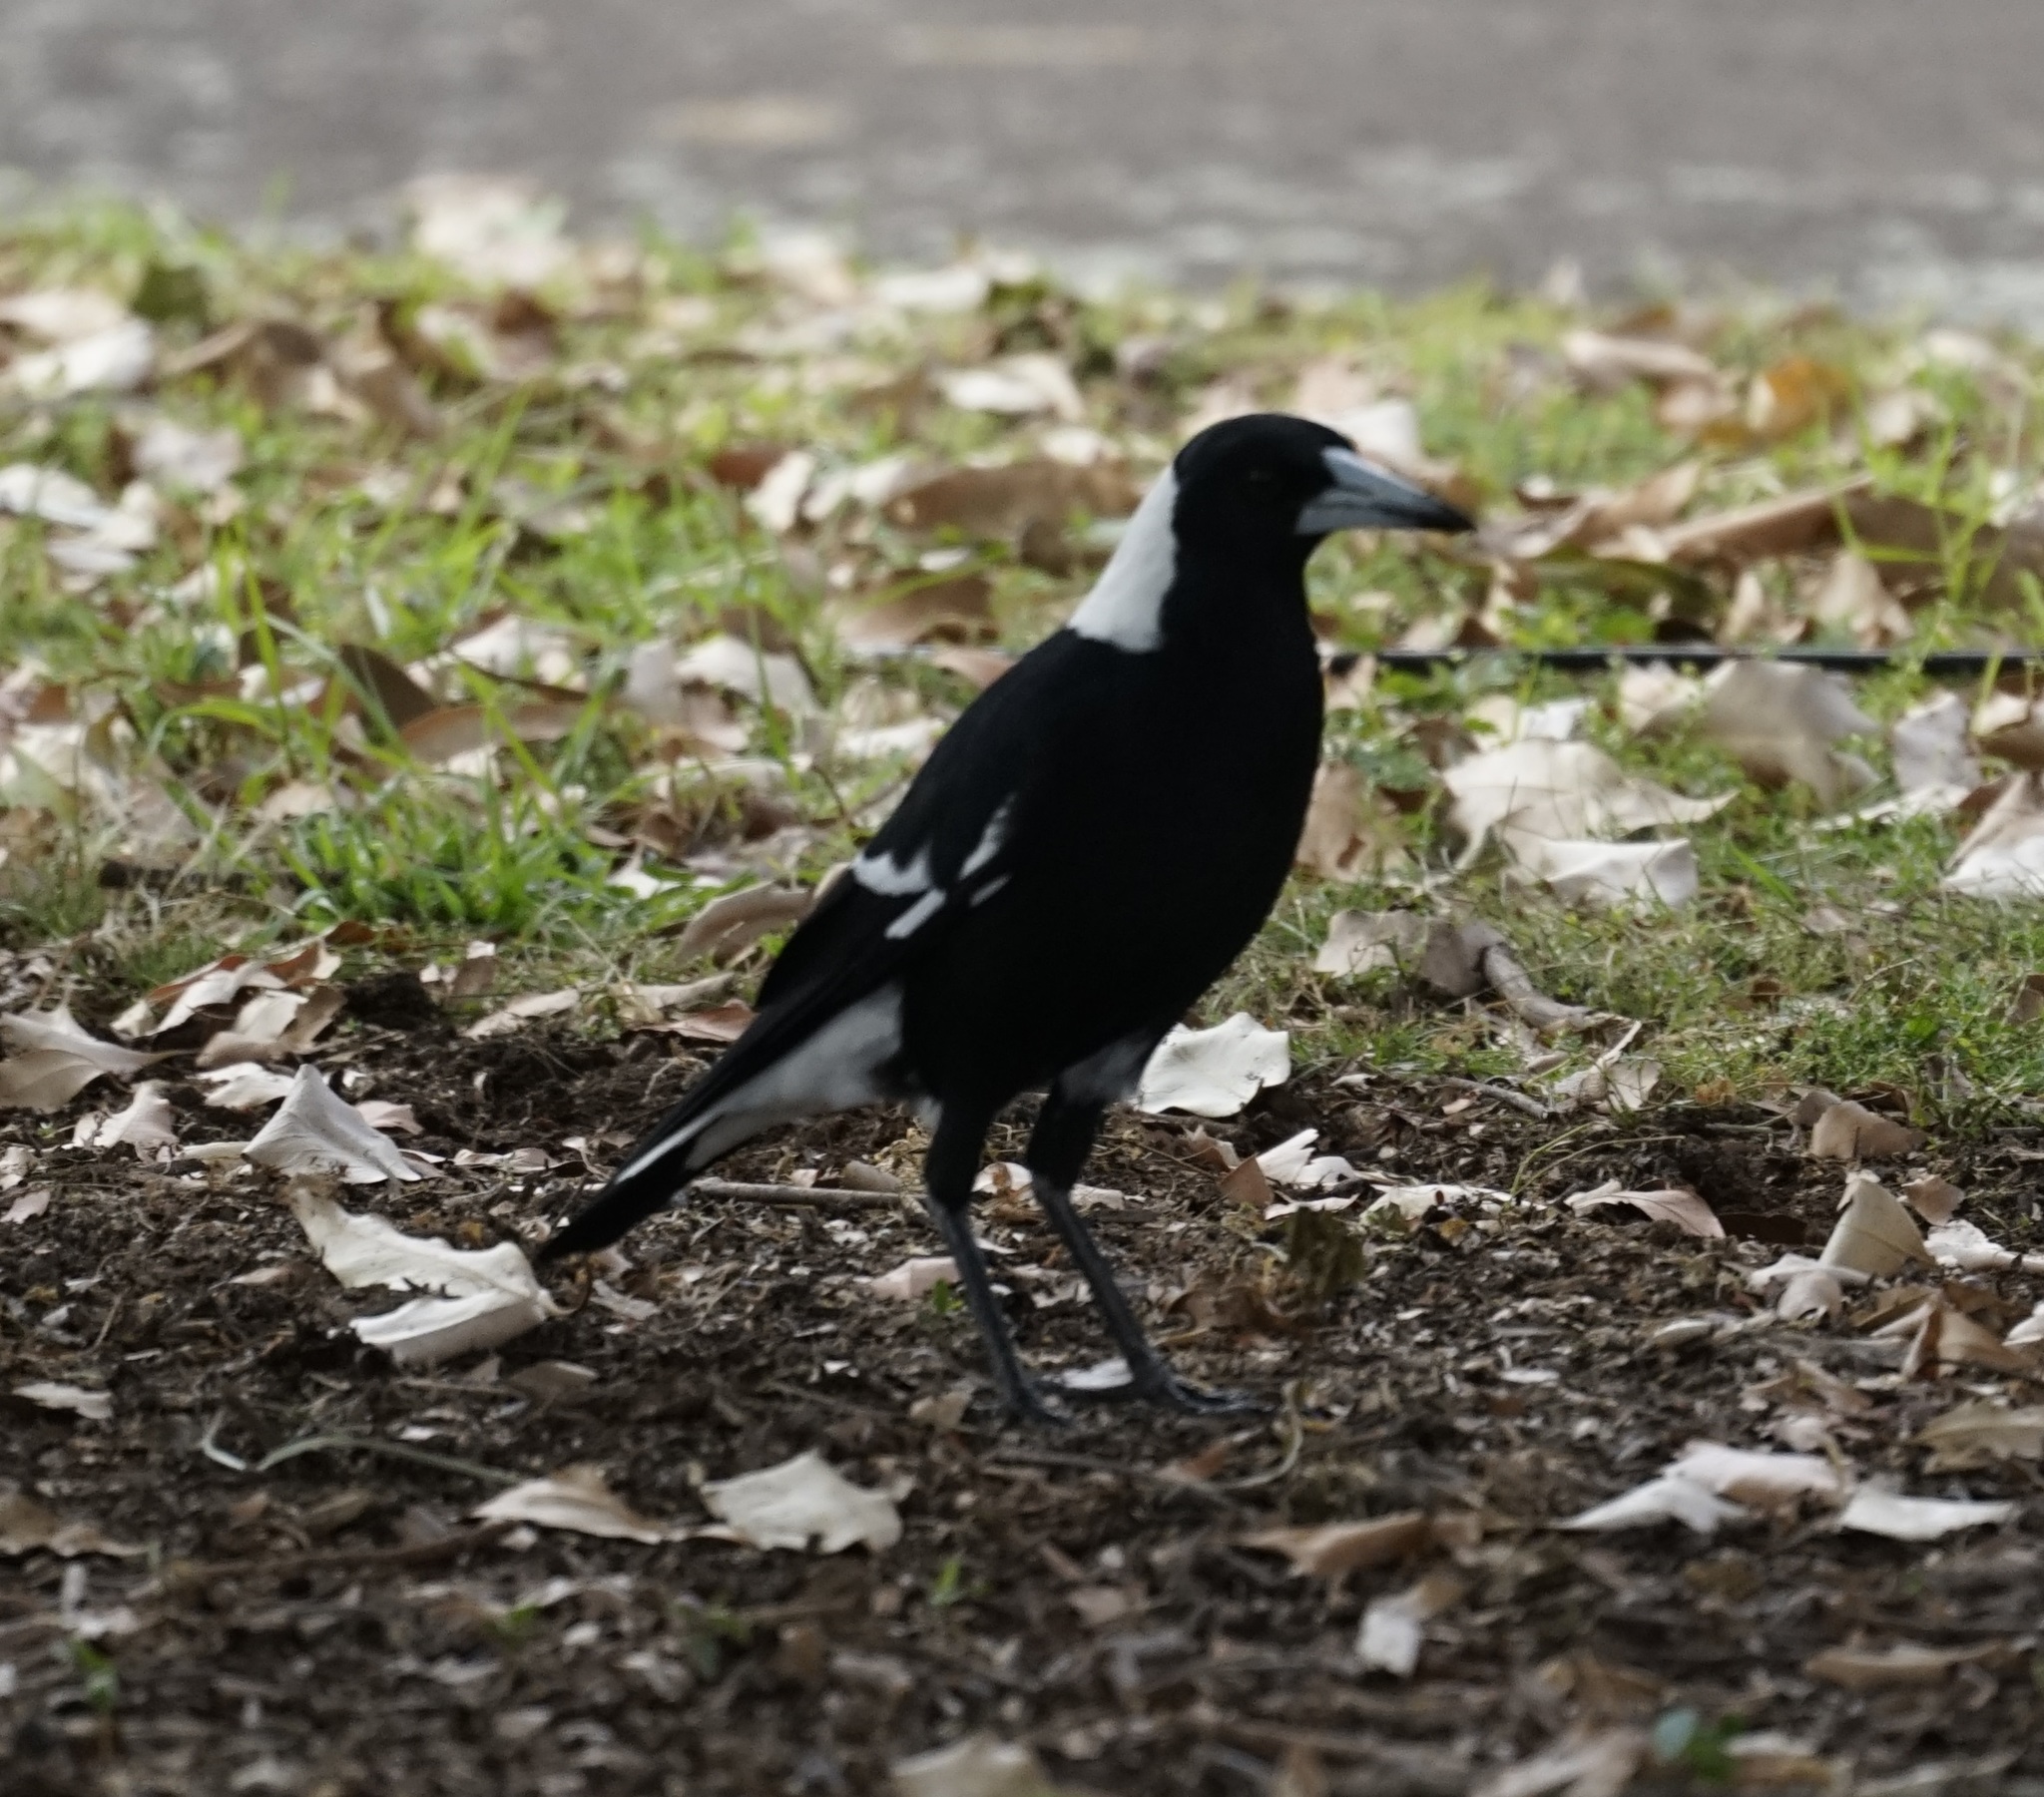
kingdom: Animalia
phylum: Chordata
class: Aves
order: Passeriformes
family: Cracticidae
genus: Gymnorhina
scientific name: Gymnorhina tibicen
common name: Australian magpie
